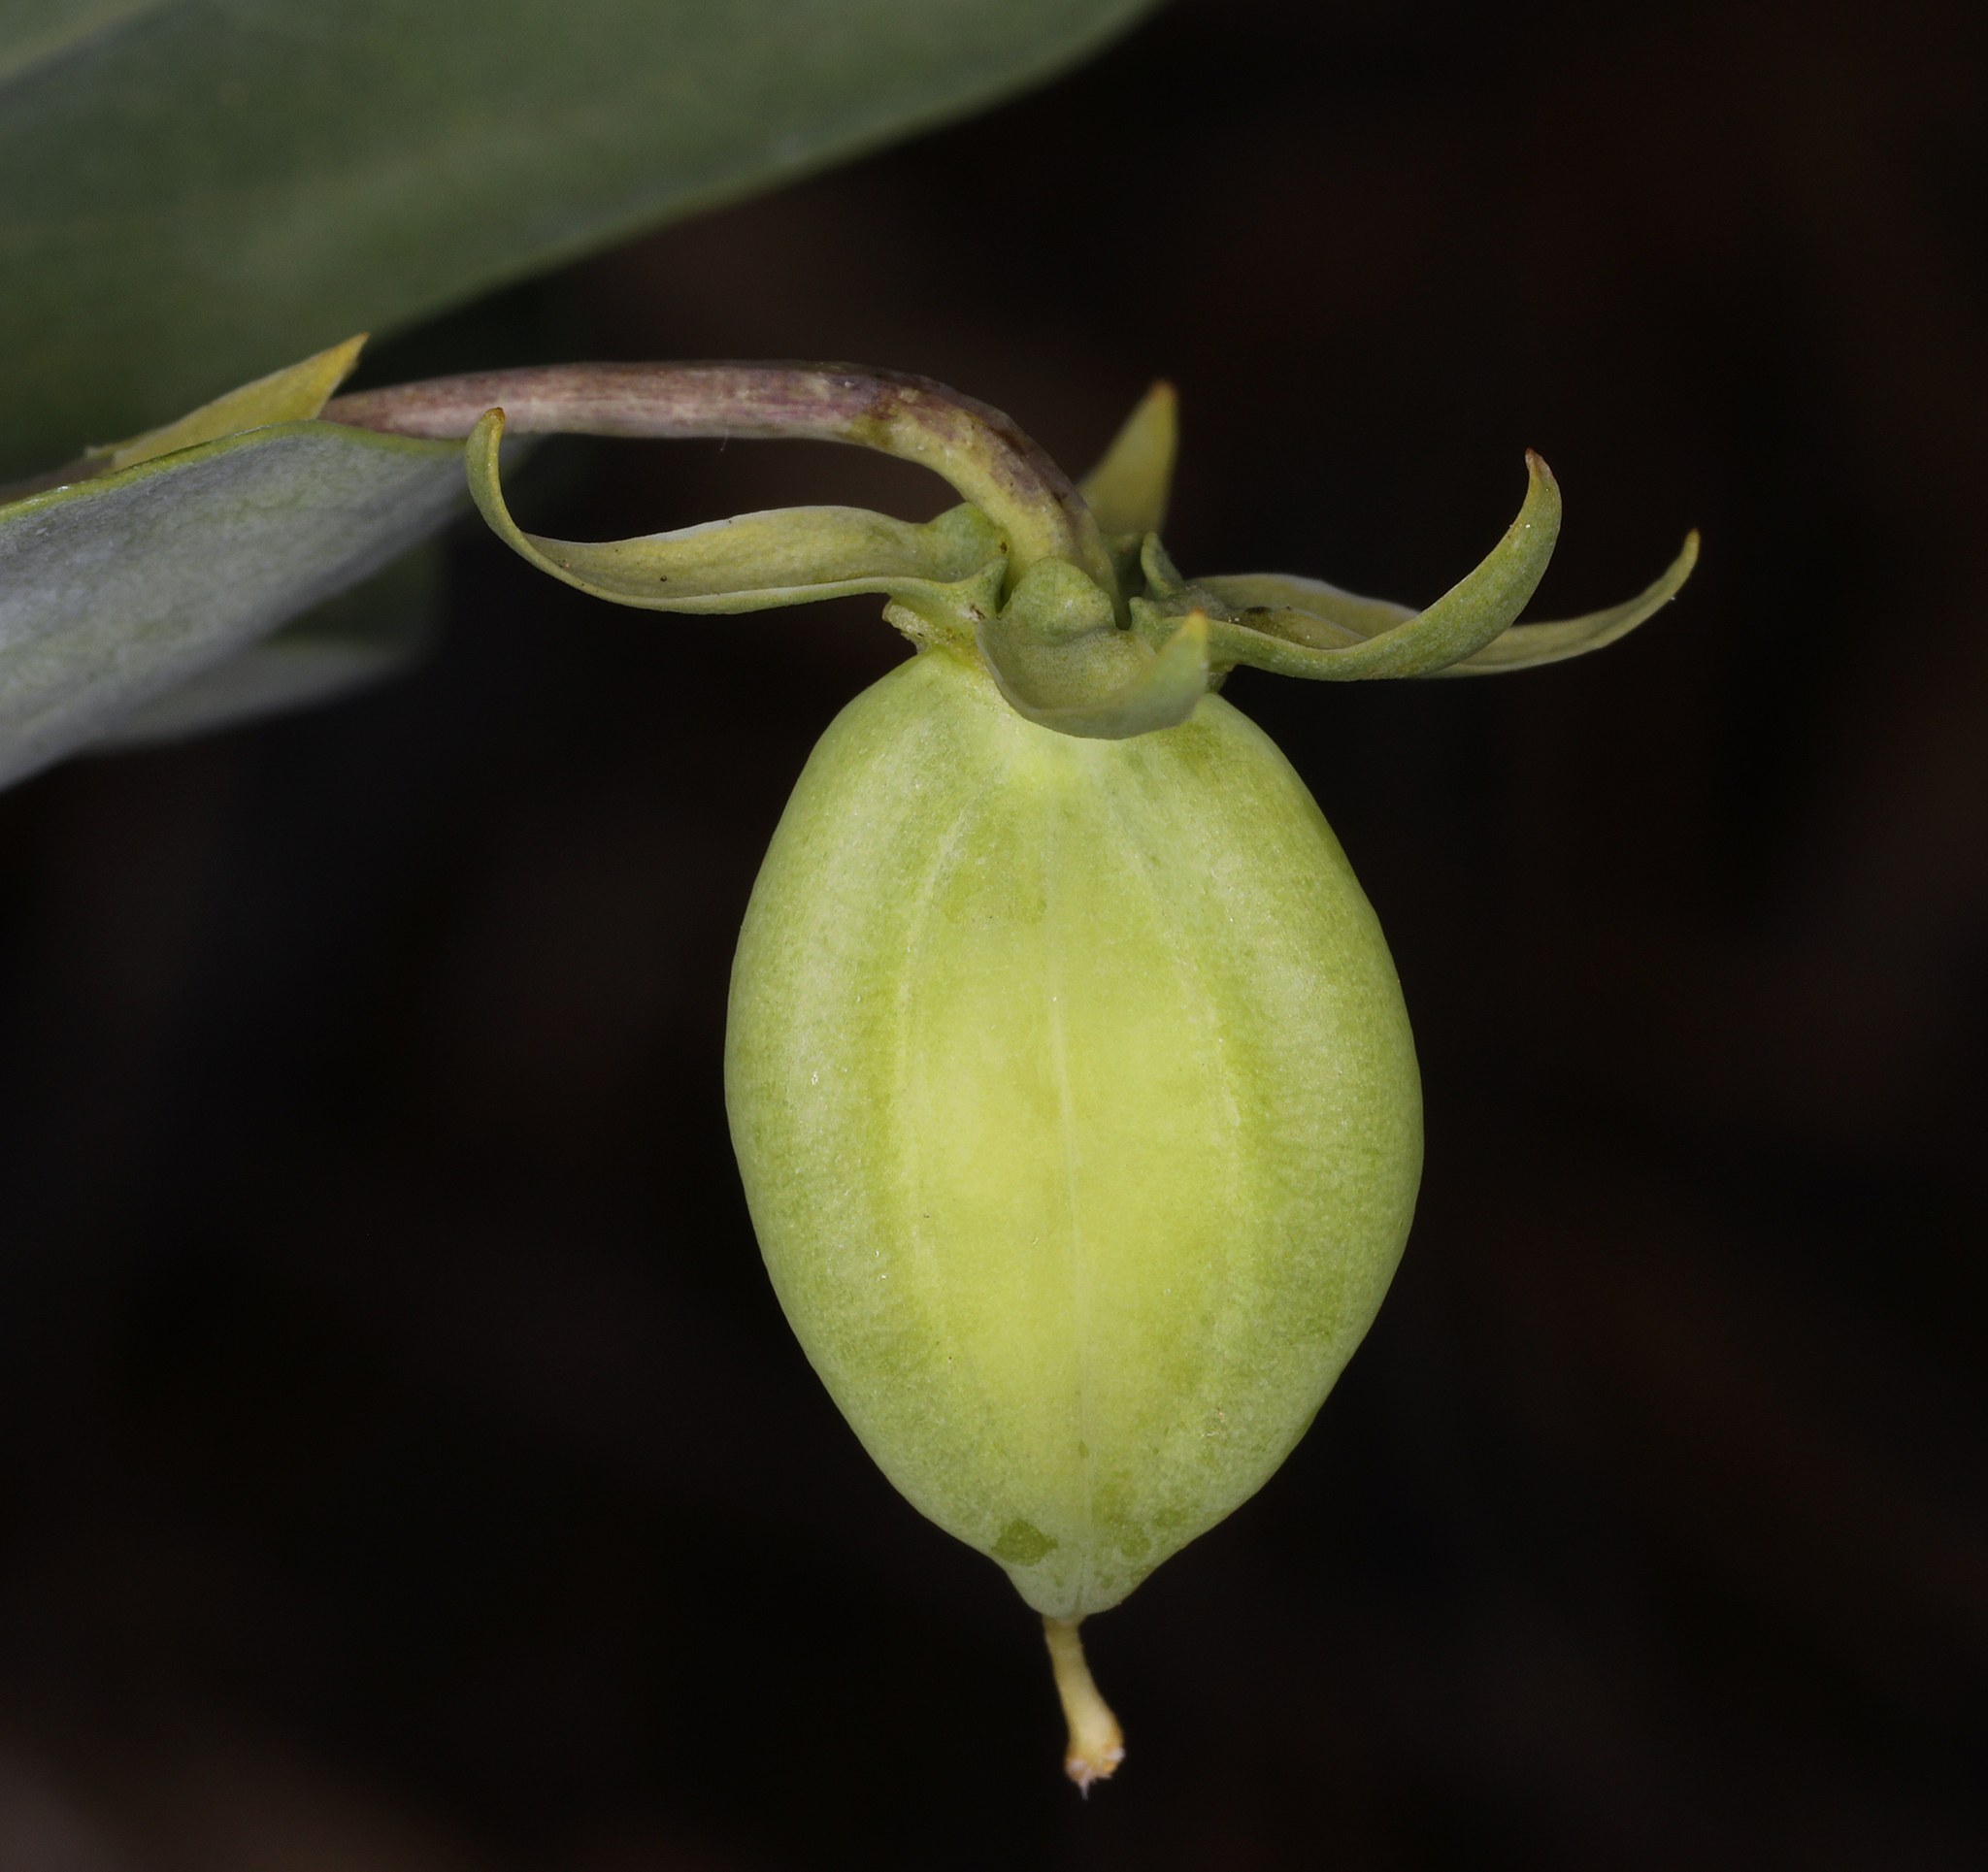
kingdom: Plantae
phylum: Tracheophyta
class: Magnoliopsida
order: Malpighiales
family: Violaceae
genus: Viola
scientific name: Viola lobata
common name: Pine violet
